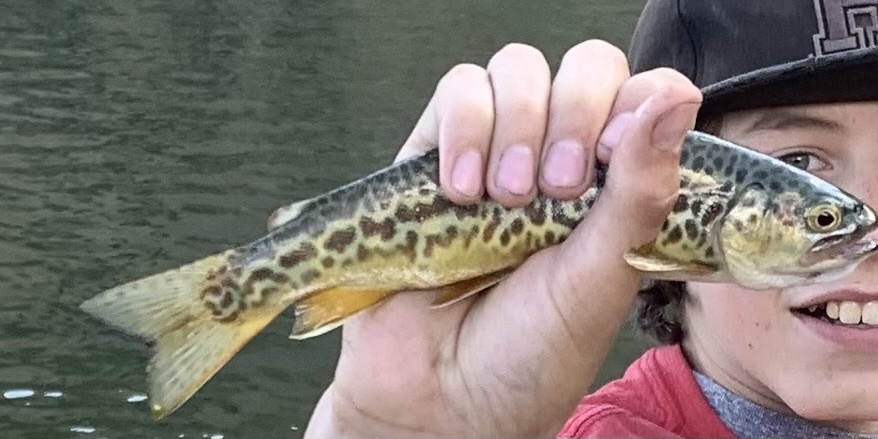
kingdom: Animalia
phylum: Chordata
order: Salmoniformes
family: Salmonidae
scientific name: Salmonidae
